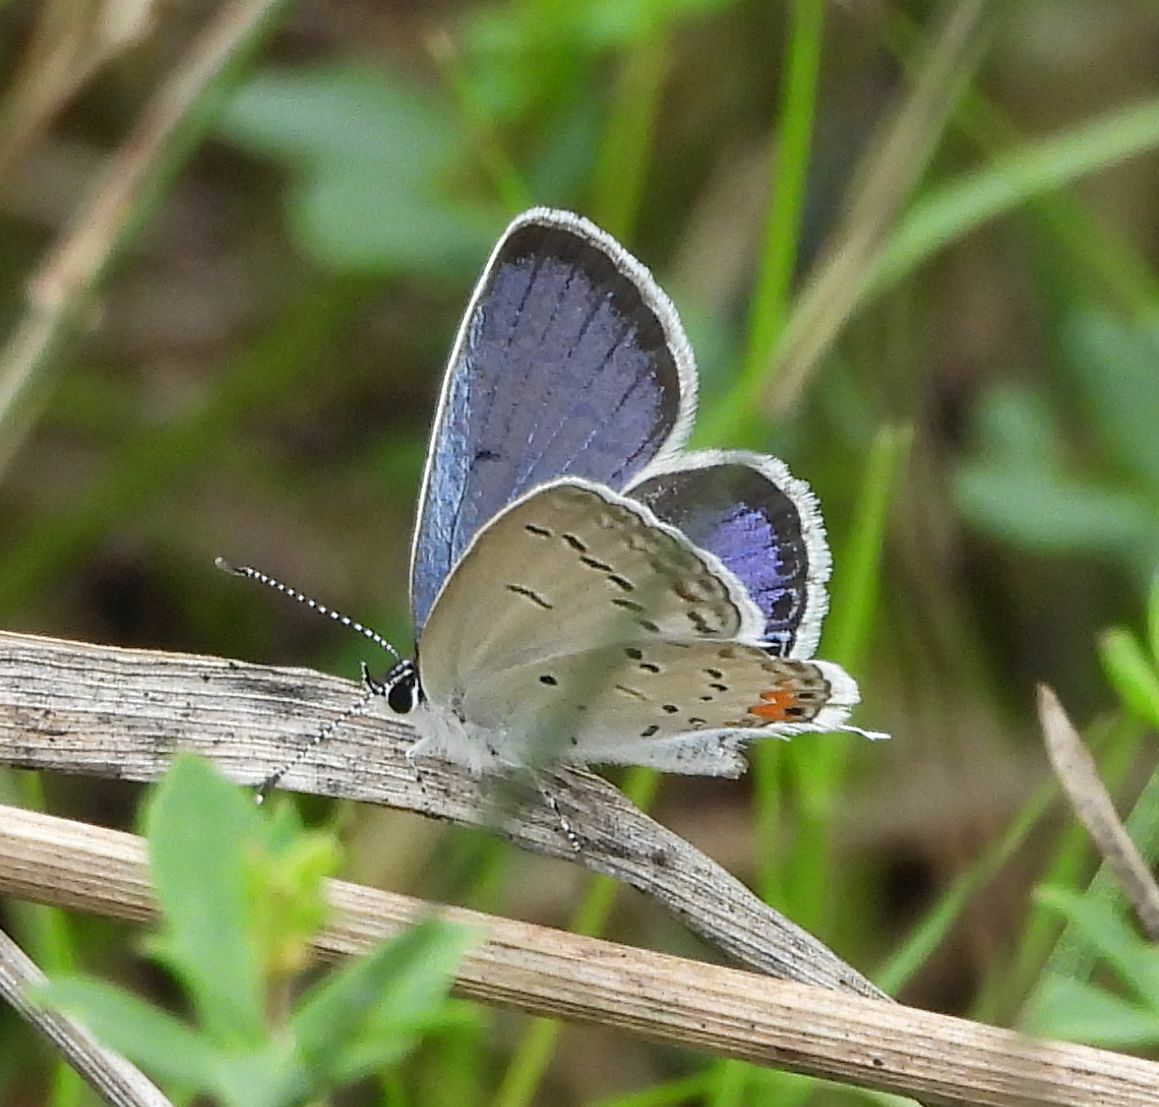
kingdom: Animalia
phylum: Arthropoda
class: Insecta
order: Lepidoptera
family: Lycaenidae
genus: Elkalyce
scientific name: Elkalyce comyntas
